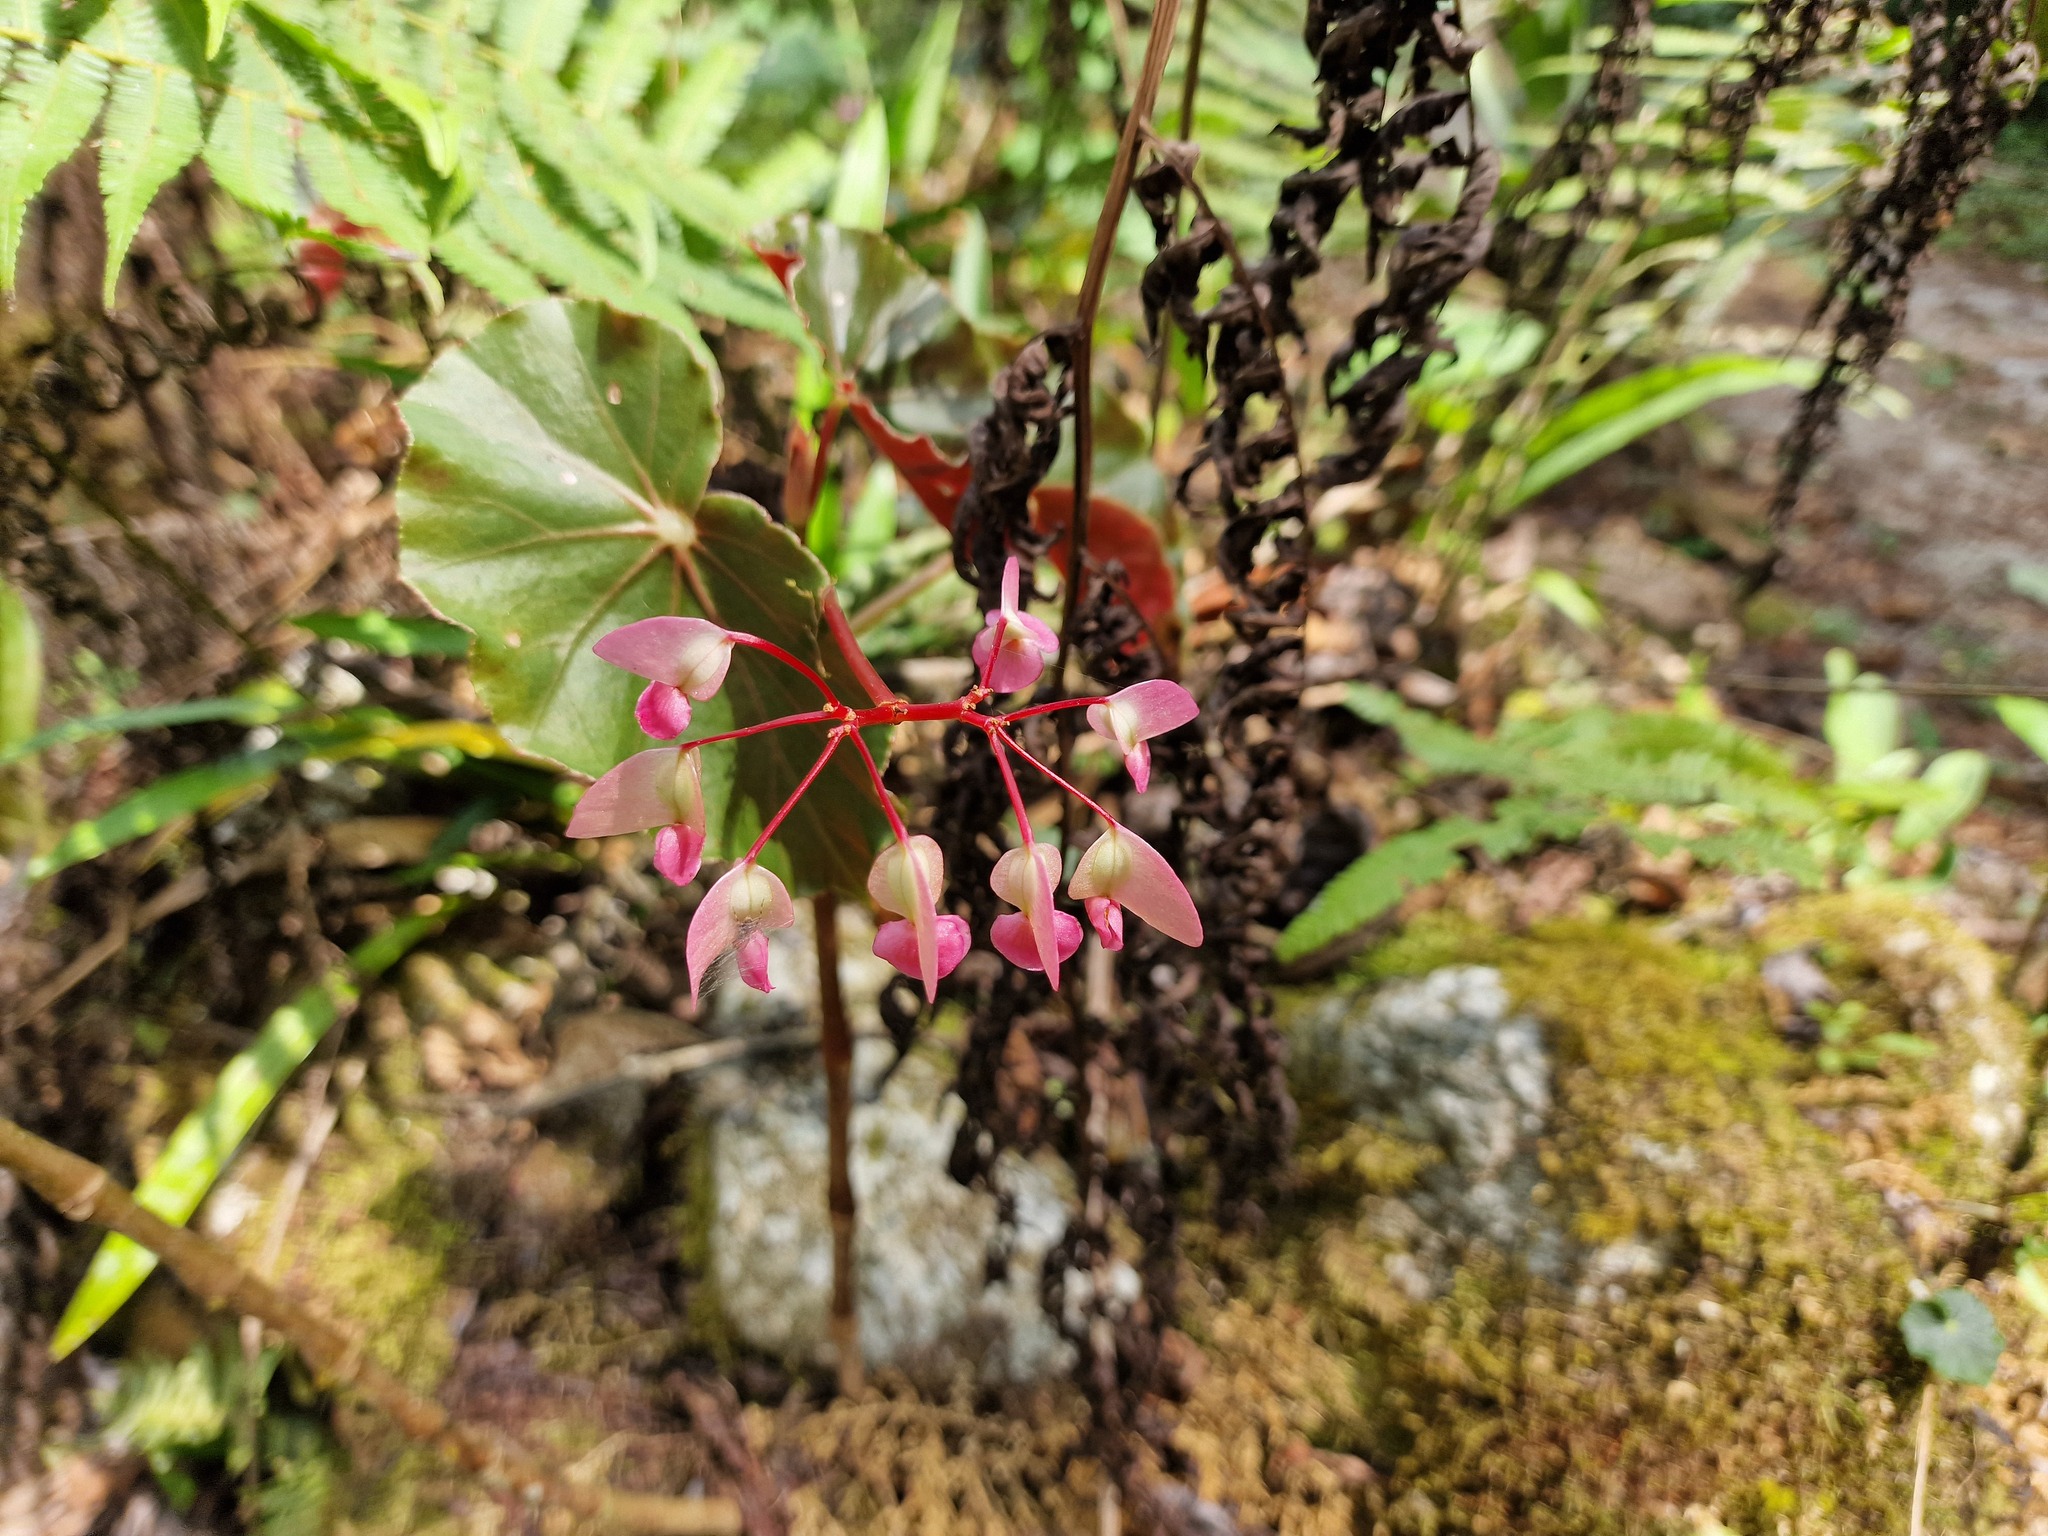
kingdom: Plantae
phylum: Tracheophyta
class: Magnoliopsida
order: Cucurbitales
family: Begoniaceae
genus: Begonia
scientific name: Begonia bracteosa
